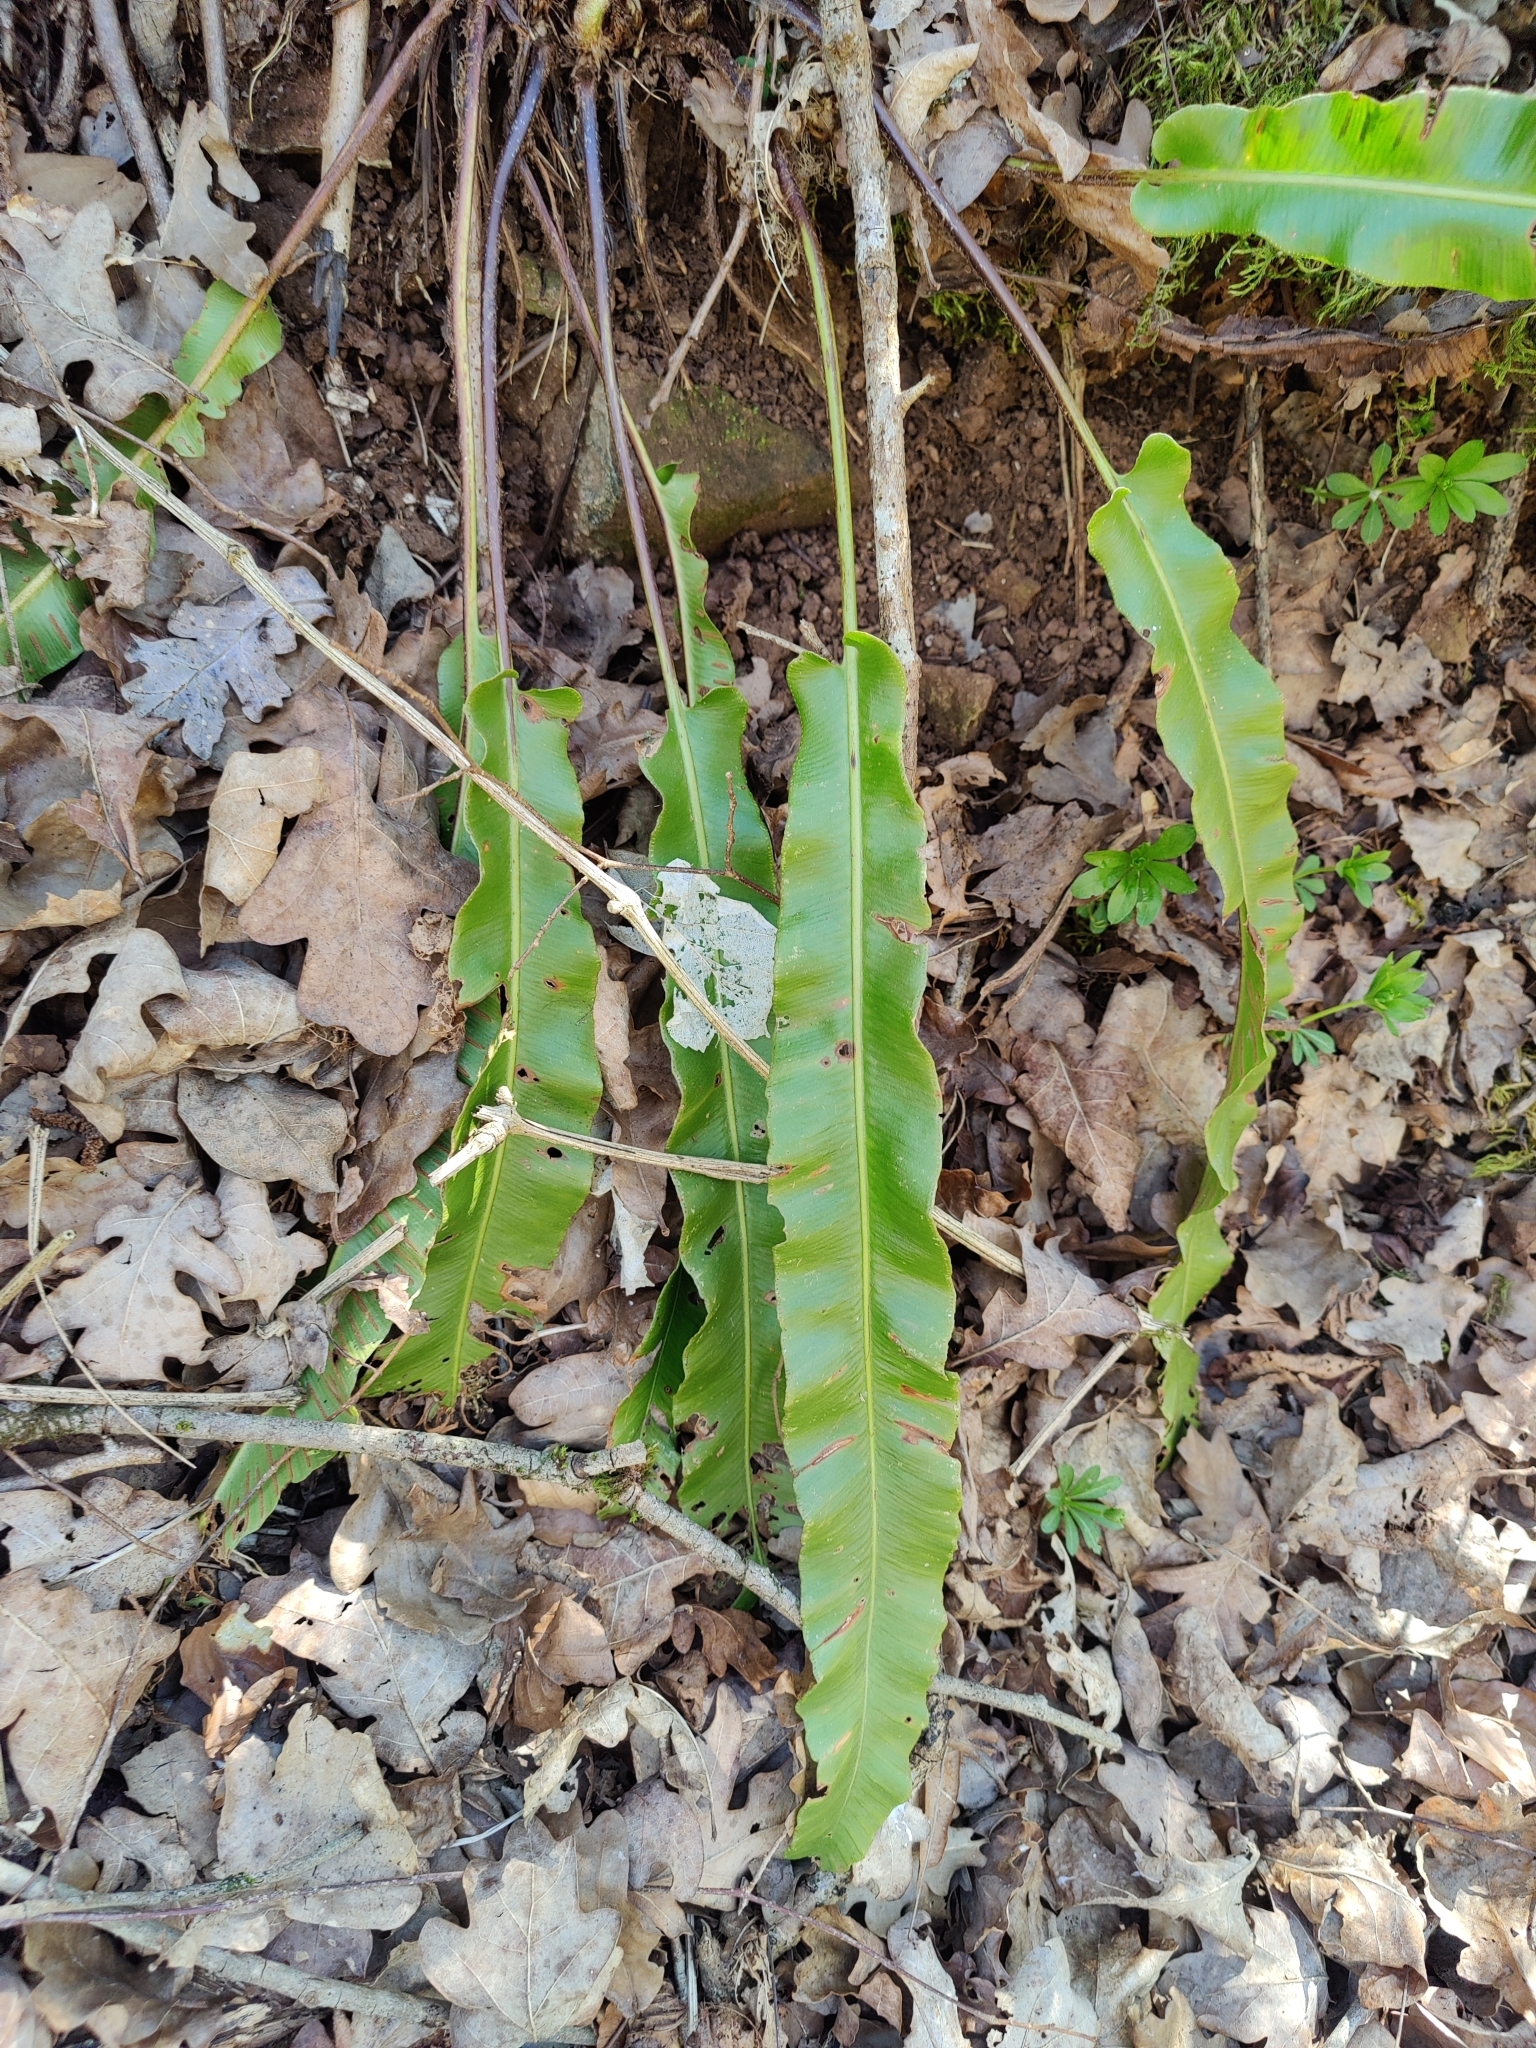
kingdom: Plantae
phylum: Tracheophyta
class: Polypodiopsida
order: Polypodiales
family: Aspleniaceae
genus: Asplenium
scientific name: Asplenium scolopendrium
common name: Hart's-tongue fern
